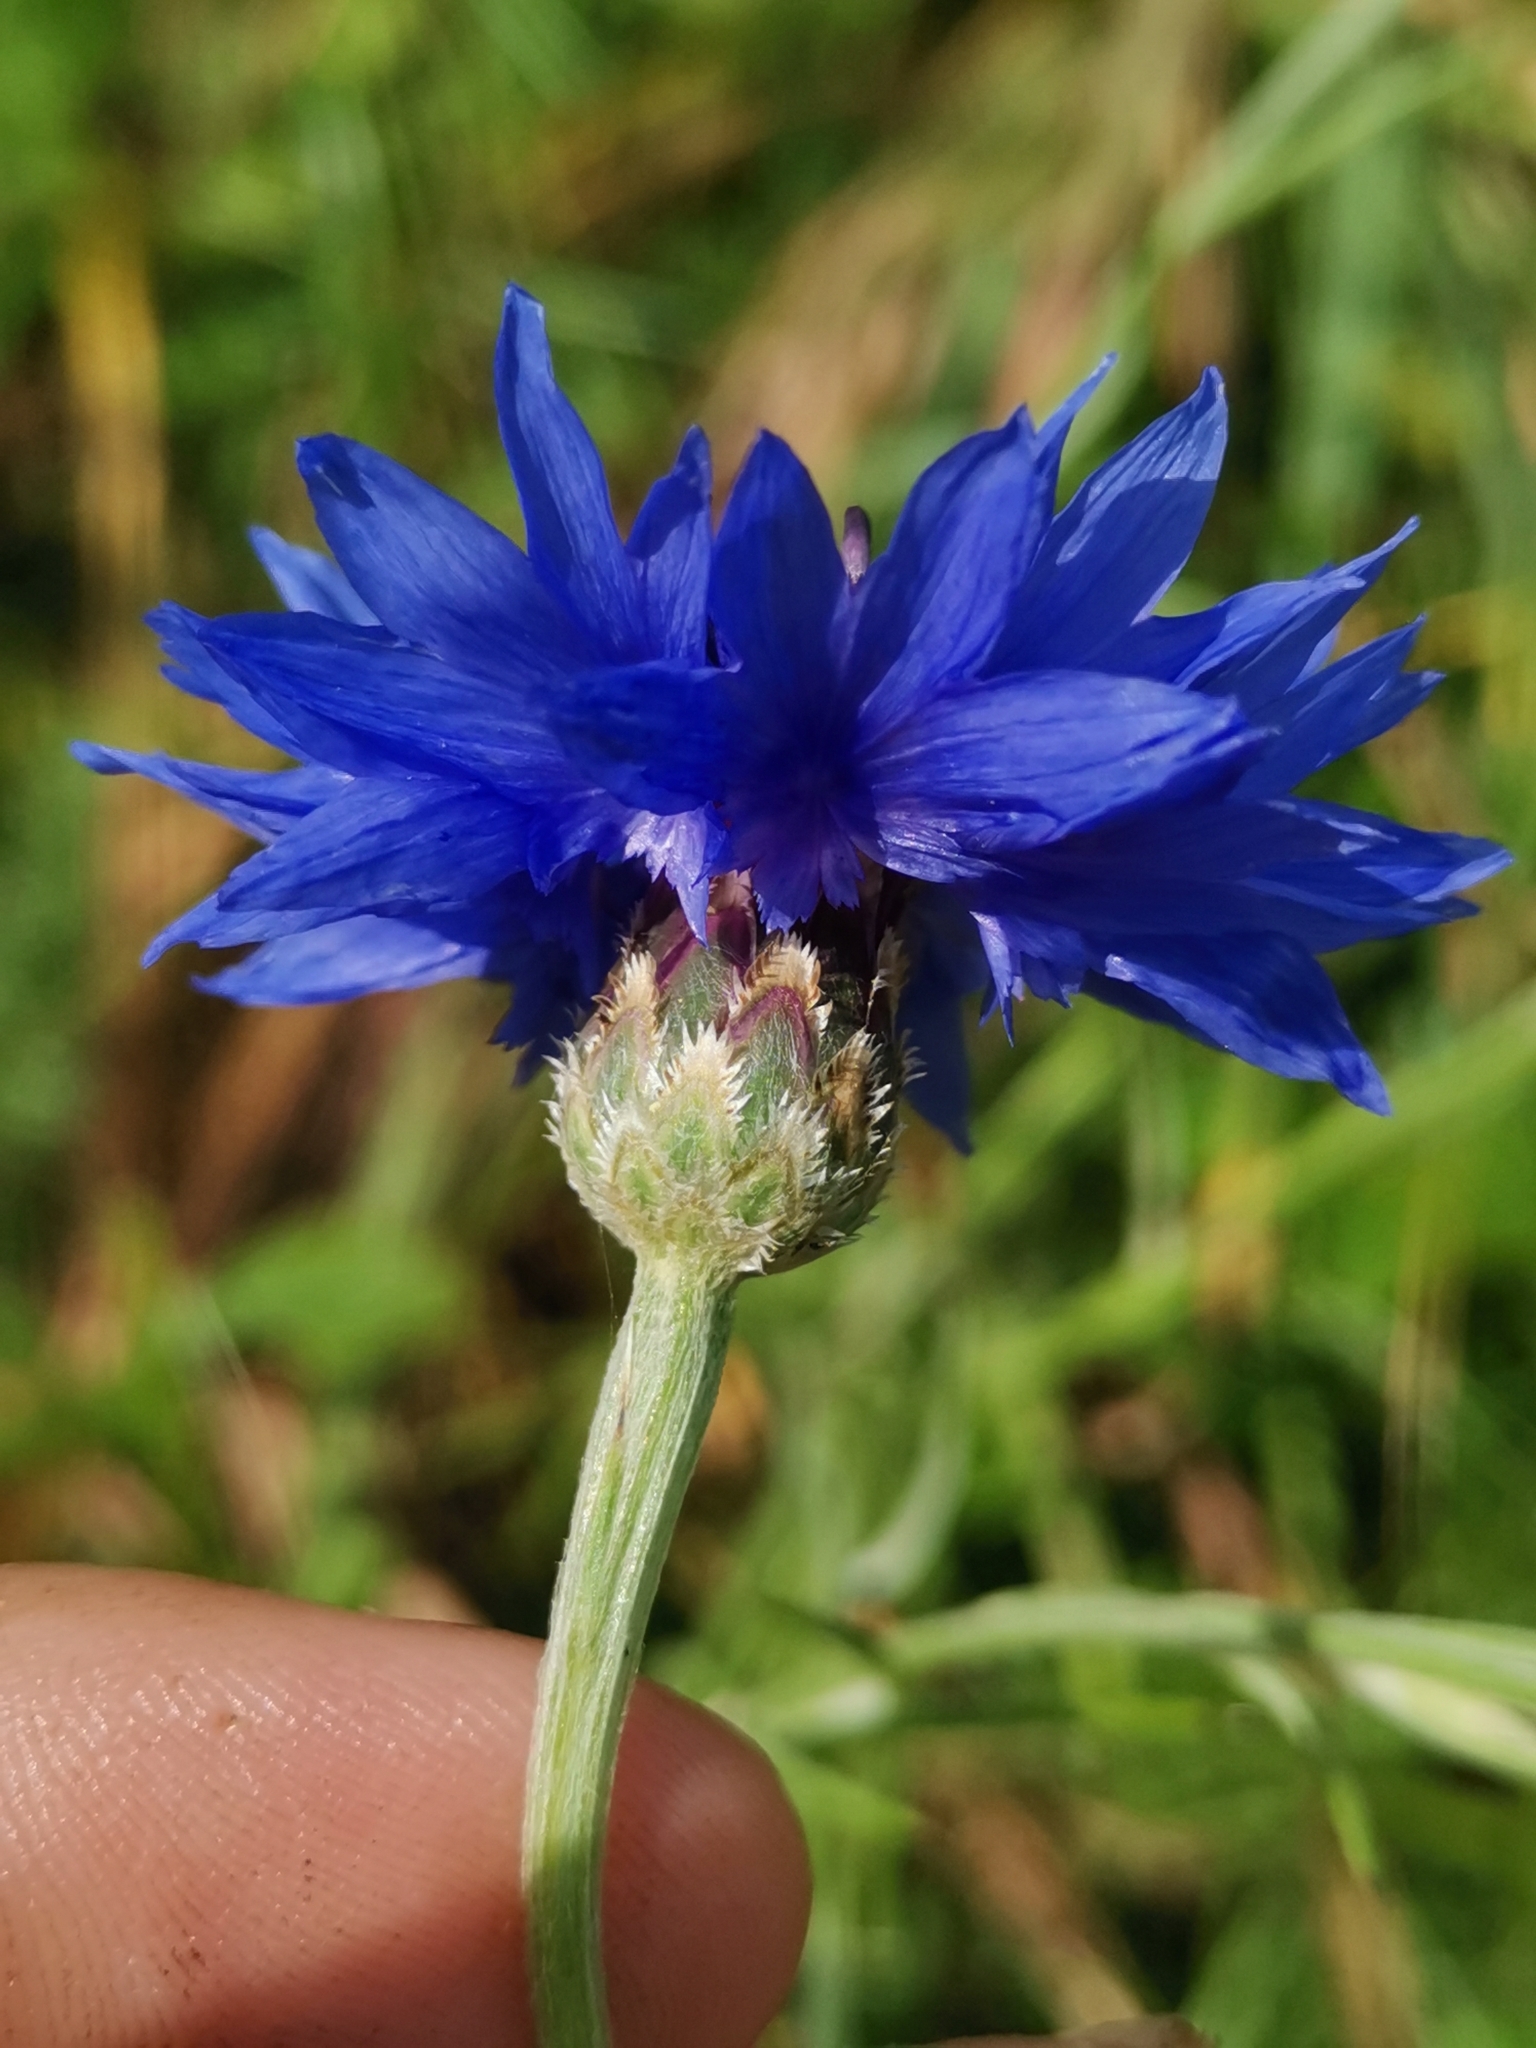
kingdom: Plantae
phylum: Tracheophyta
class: Magnoliopsida
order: Asterales
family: Asteraceae
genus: Centaurea
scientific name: Centaurea cyanus
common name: Cornflower
